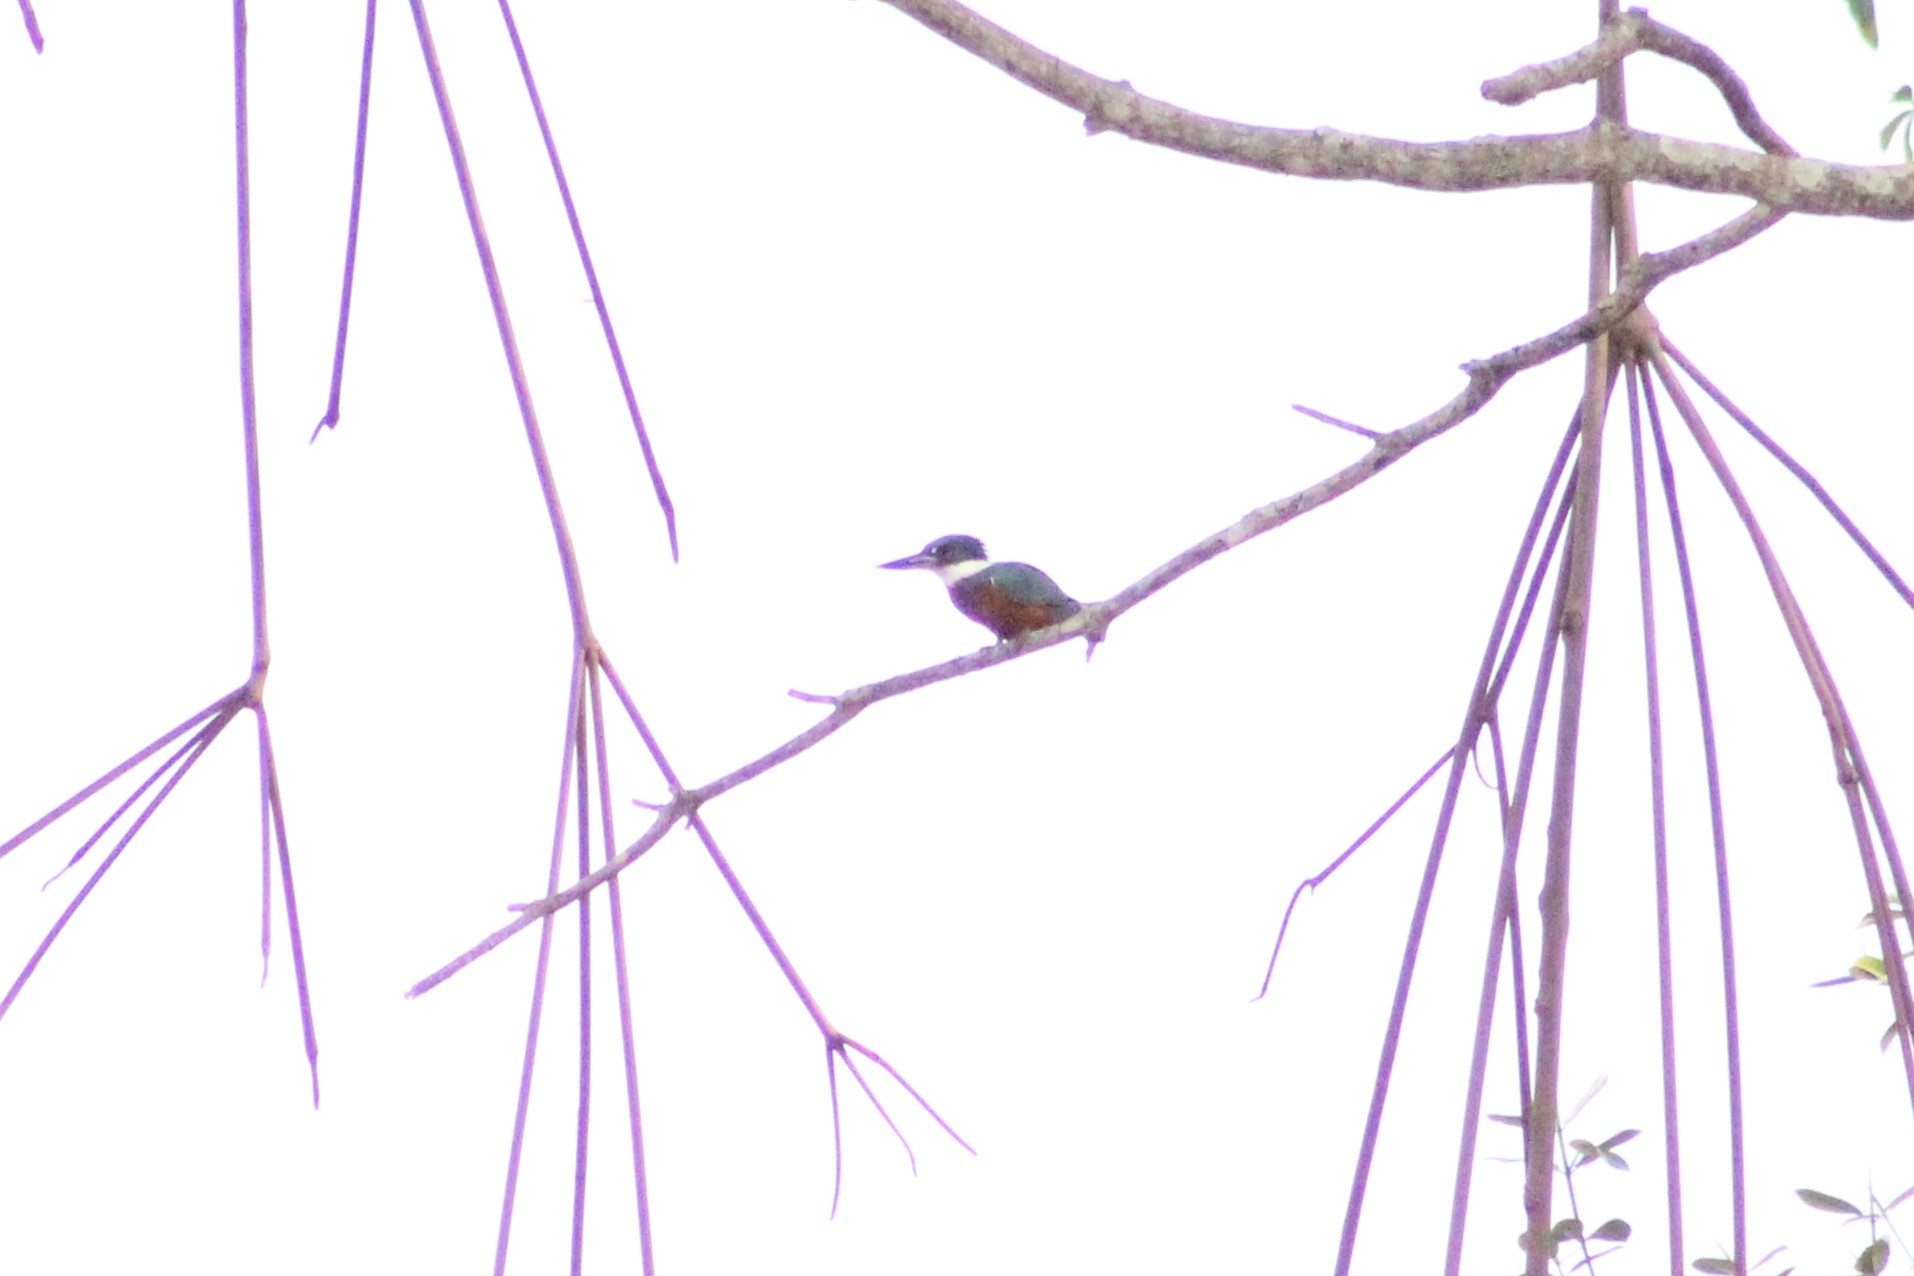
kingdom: Animalia
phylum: Chordata
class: Aves
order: Coraciiformes
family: Alcedinidae
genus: Megaceryle
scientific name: Megaceryle torquata
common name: Ringed kingfisher
